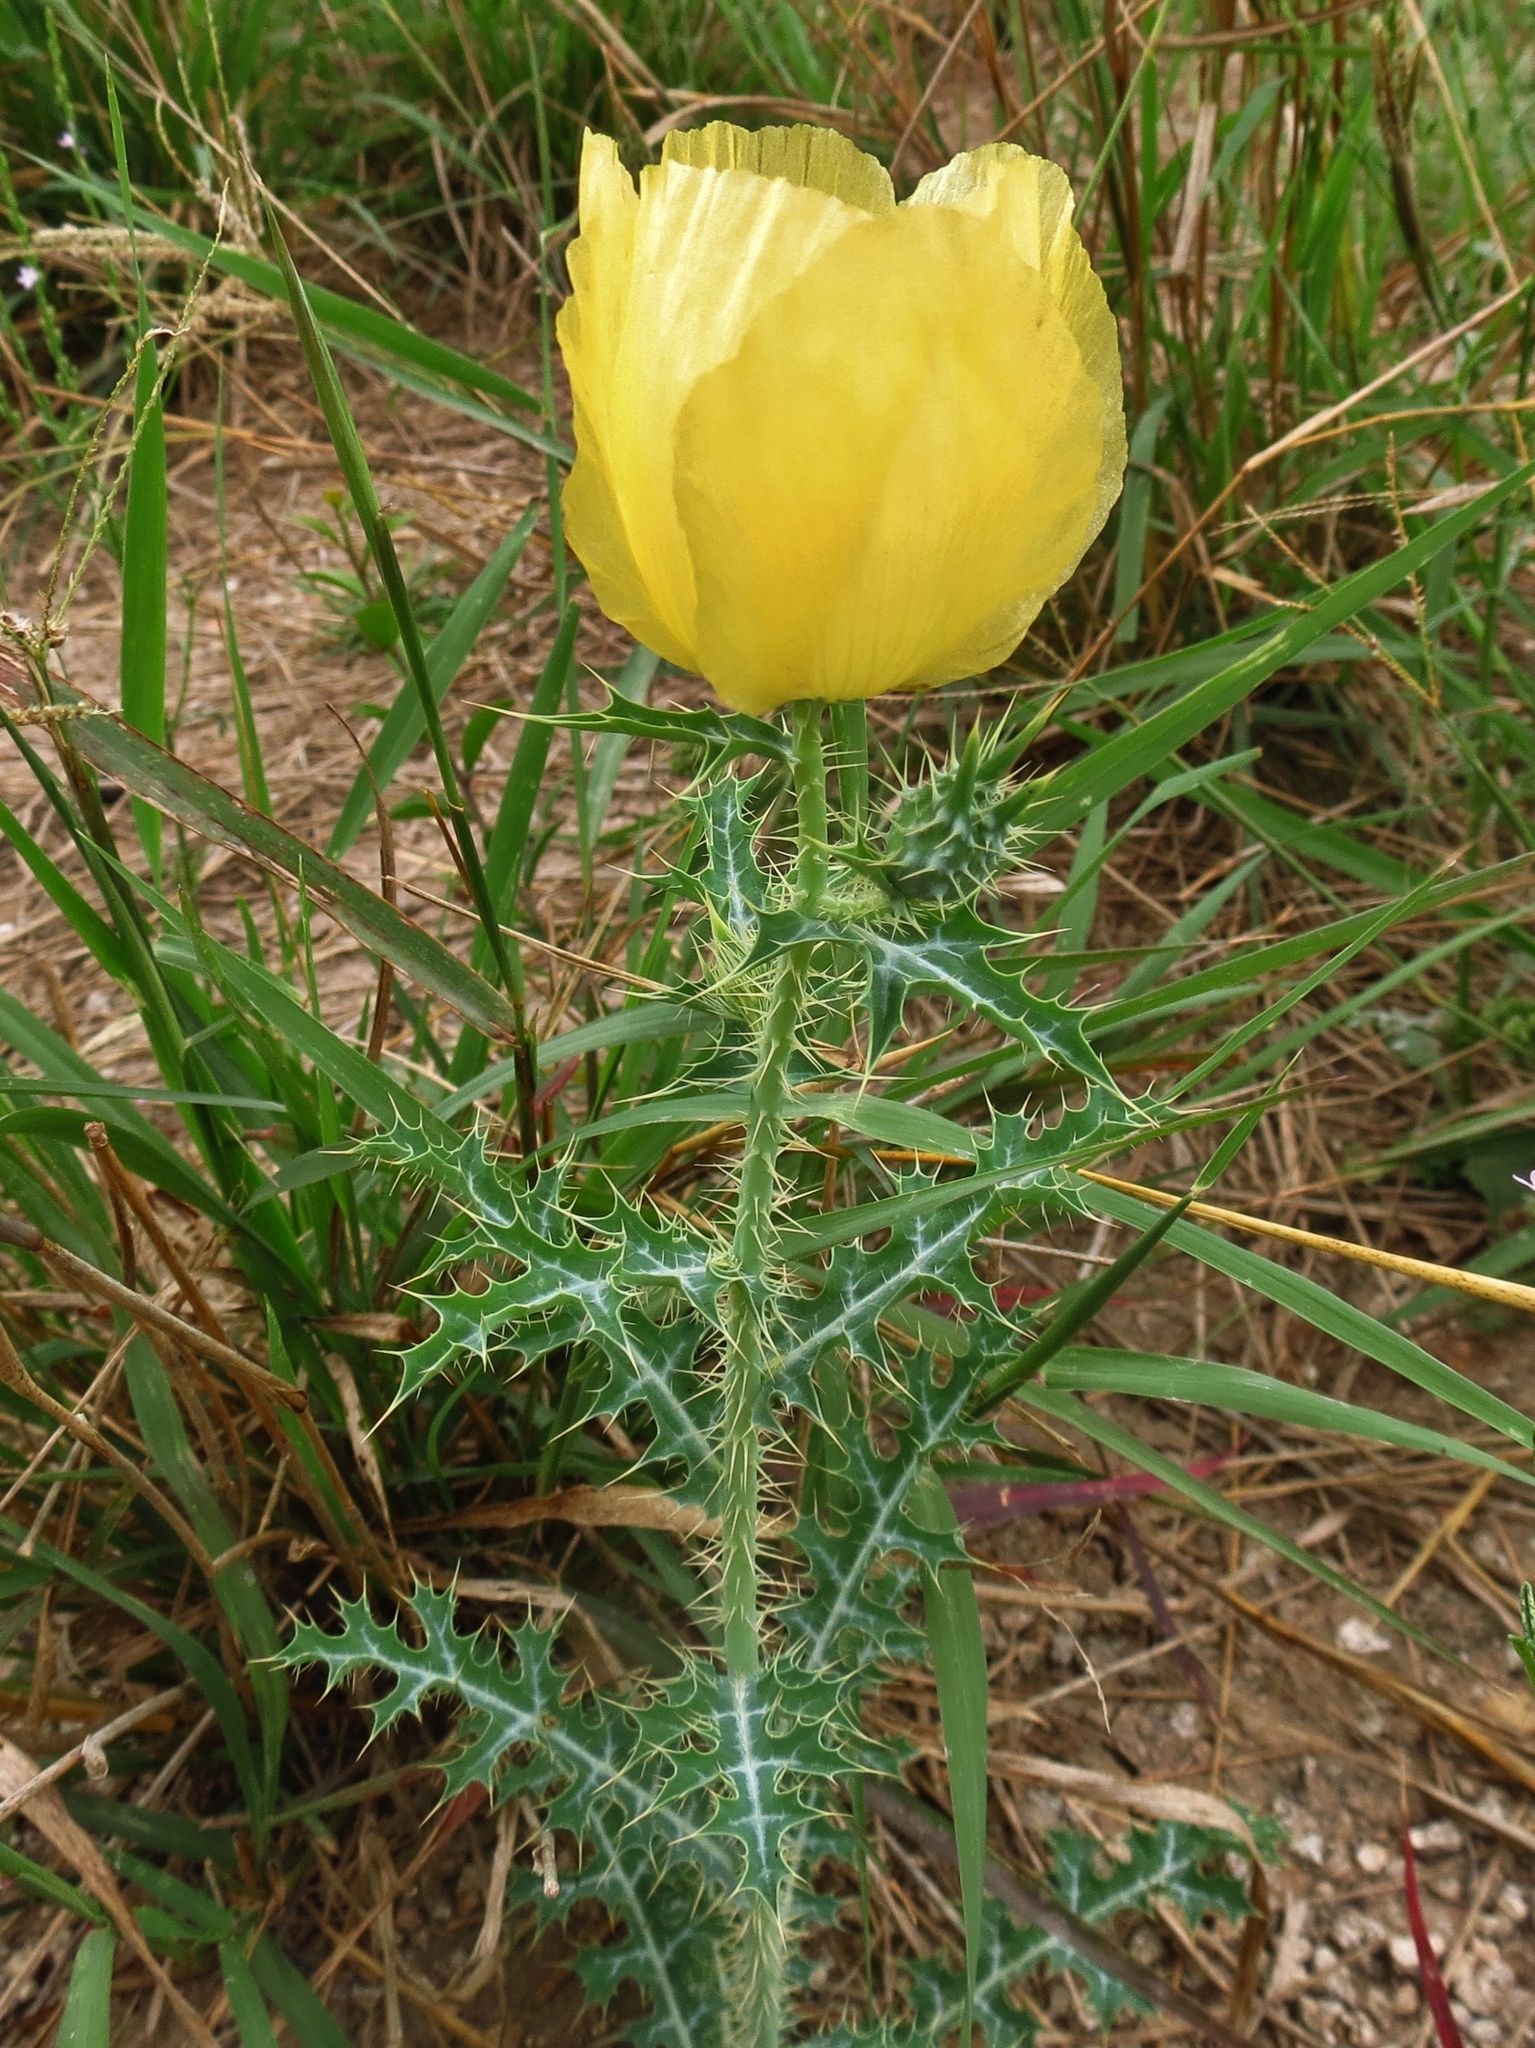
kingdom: Plantae
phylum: Tracheophyta
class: Magnoliopsida
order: Ranunculales
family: Papaveraceae
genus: Argemone
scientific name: Argemone aenea
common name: Golden prickly-poppy
